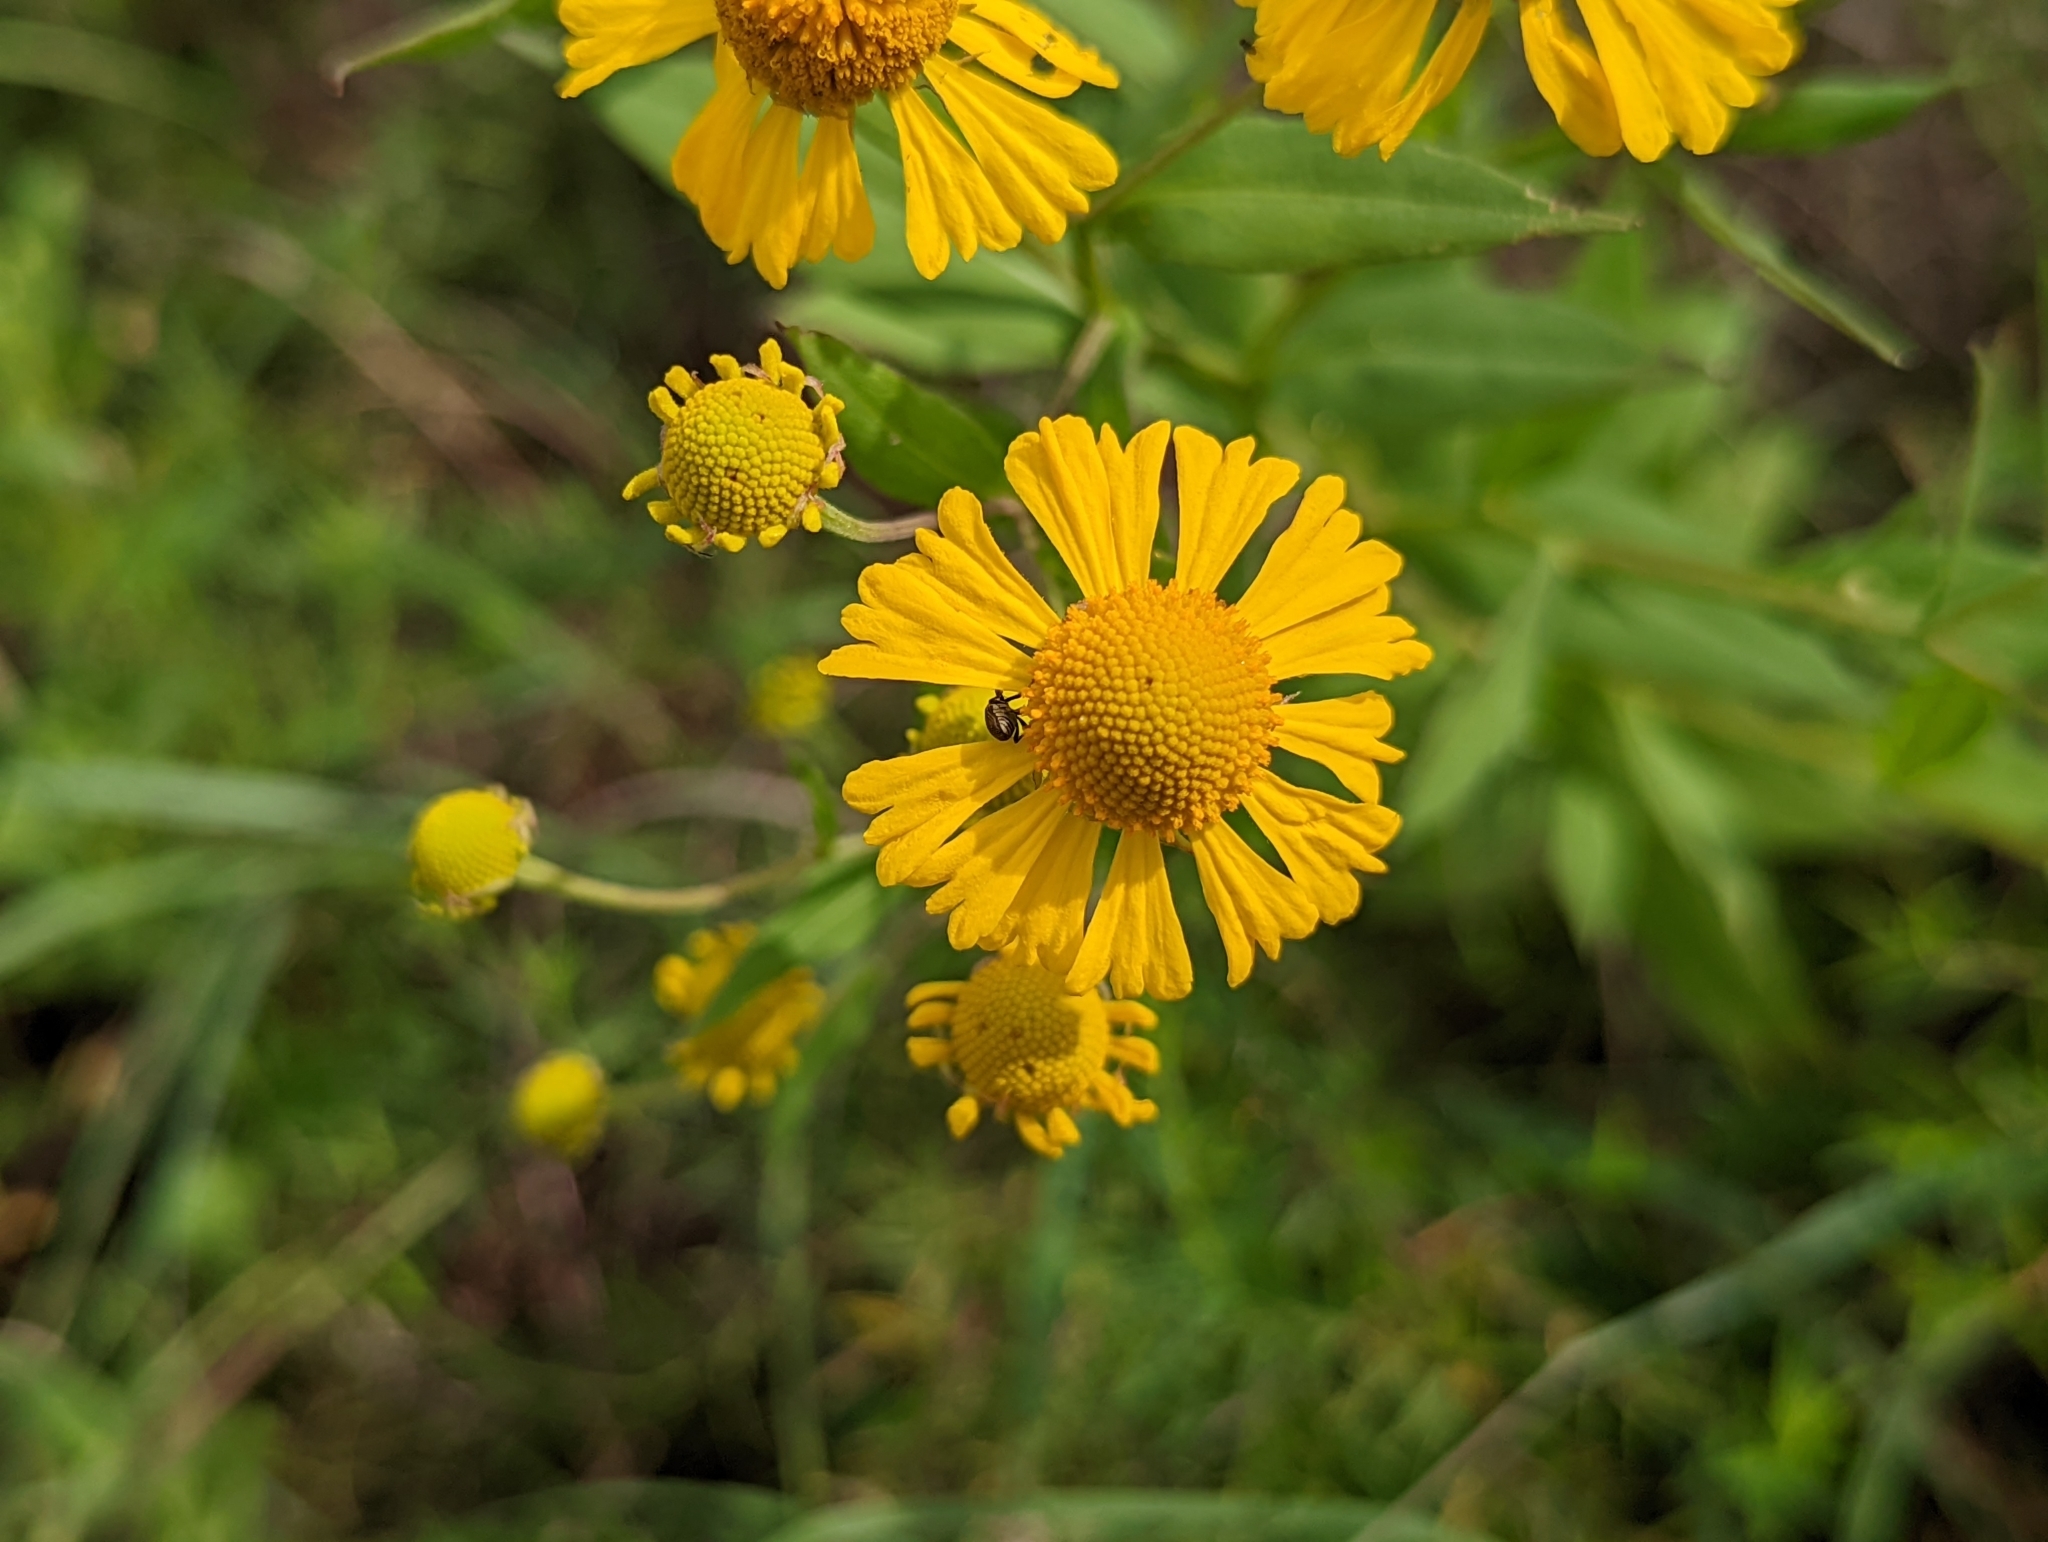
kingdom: Plantae
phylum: Tracheophyta
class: Magnoliopsida
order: Asterales
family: Asteraceae
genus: Helenium
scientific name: Helenium autumnale
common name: Sneezeweed
